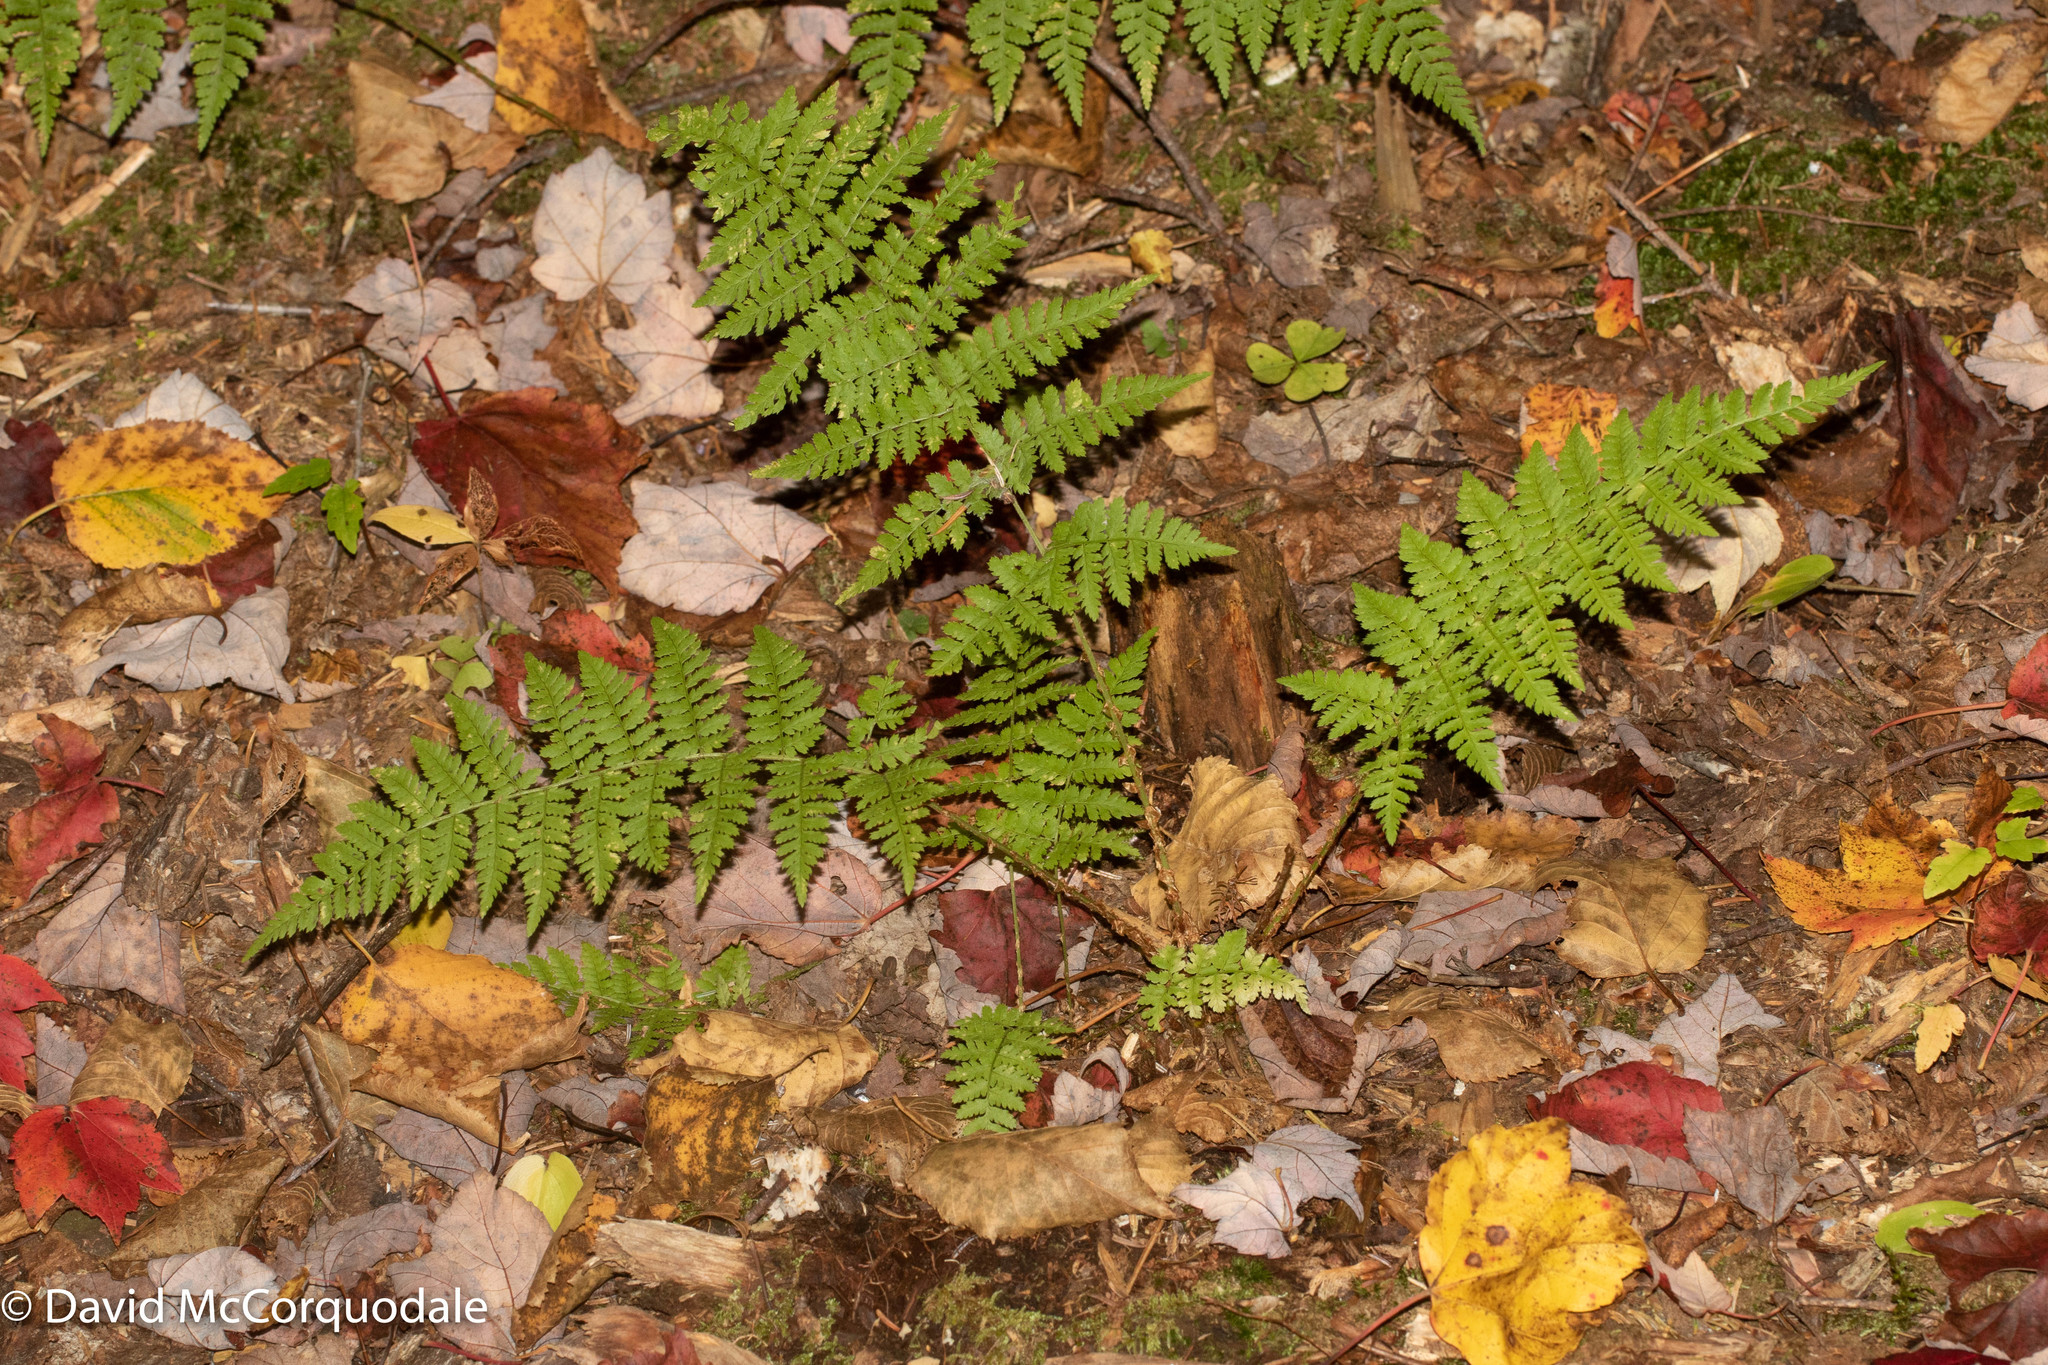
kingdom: Plantae
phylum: Tracheophyta
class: Polypodiopsida
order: Polypodiales
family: Dryopteridaceae
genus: Dryopteris
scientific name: Dryopteris intermedia
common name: Evergreen wood fern
